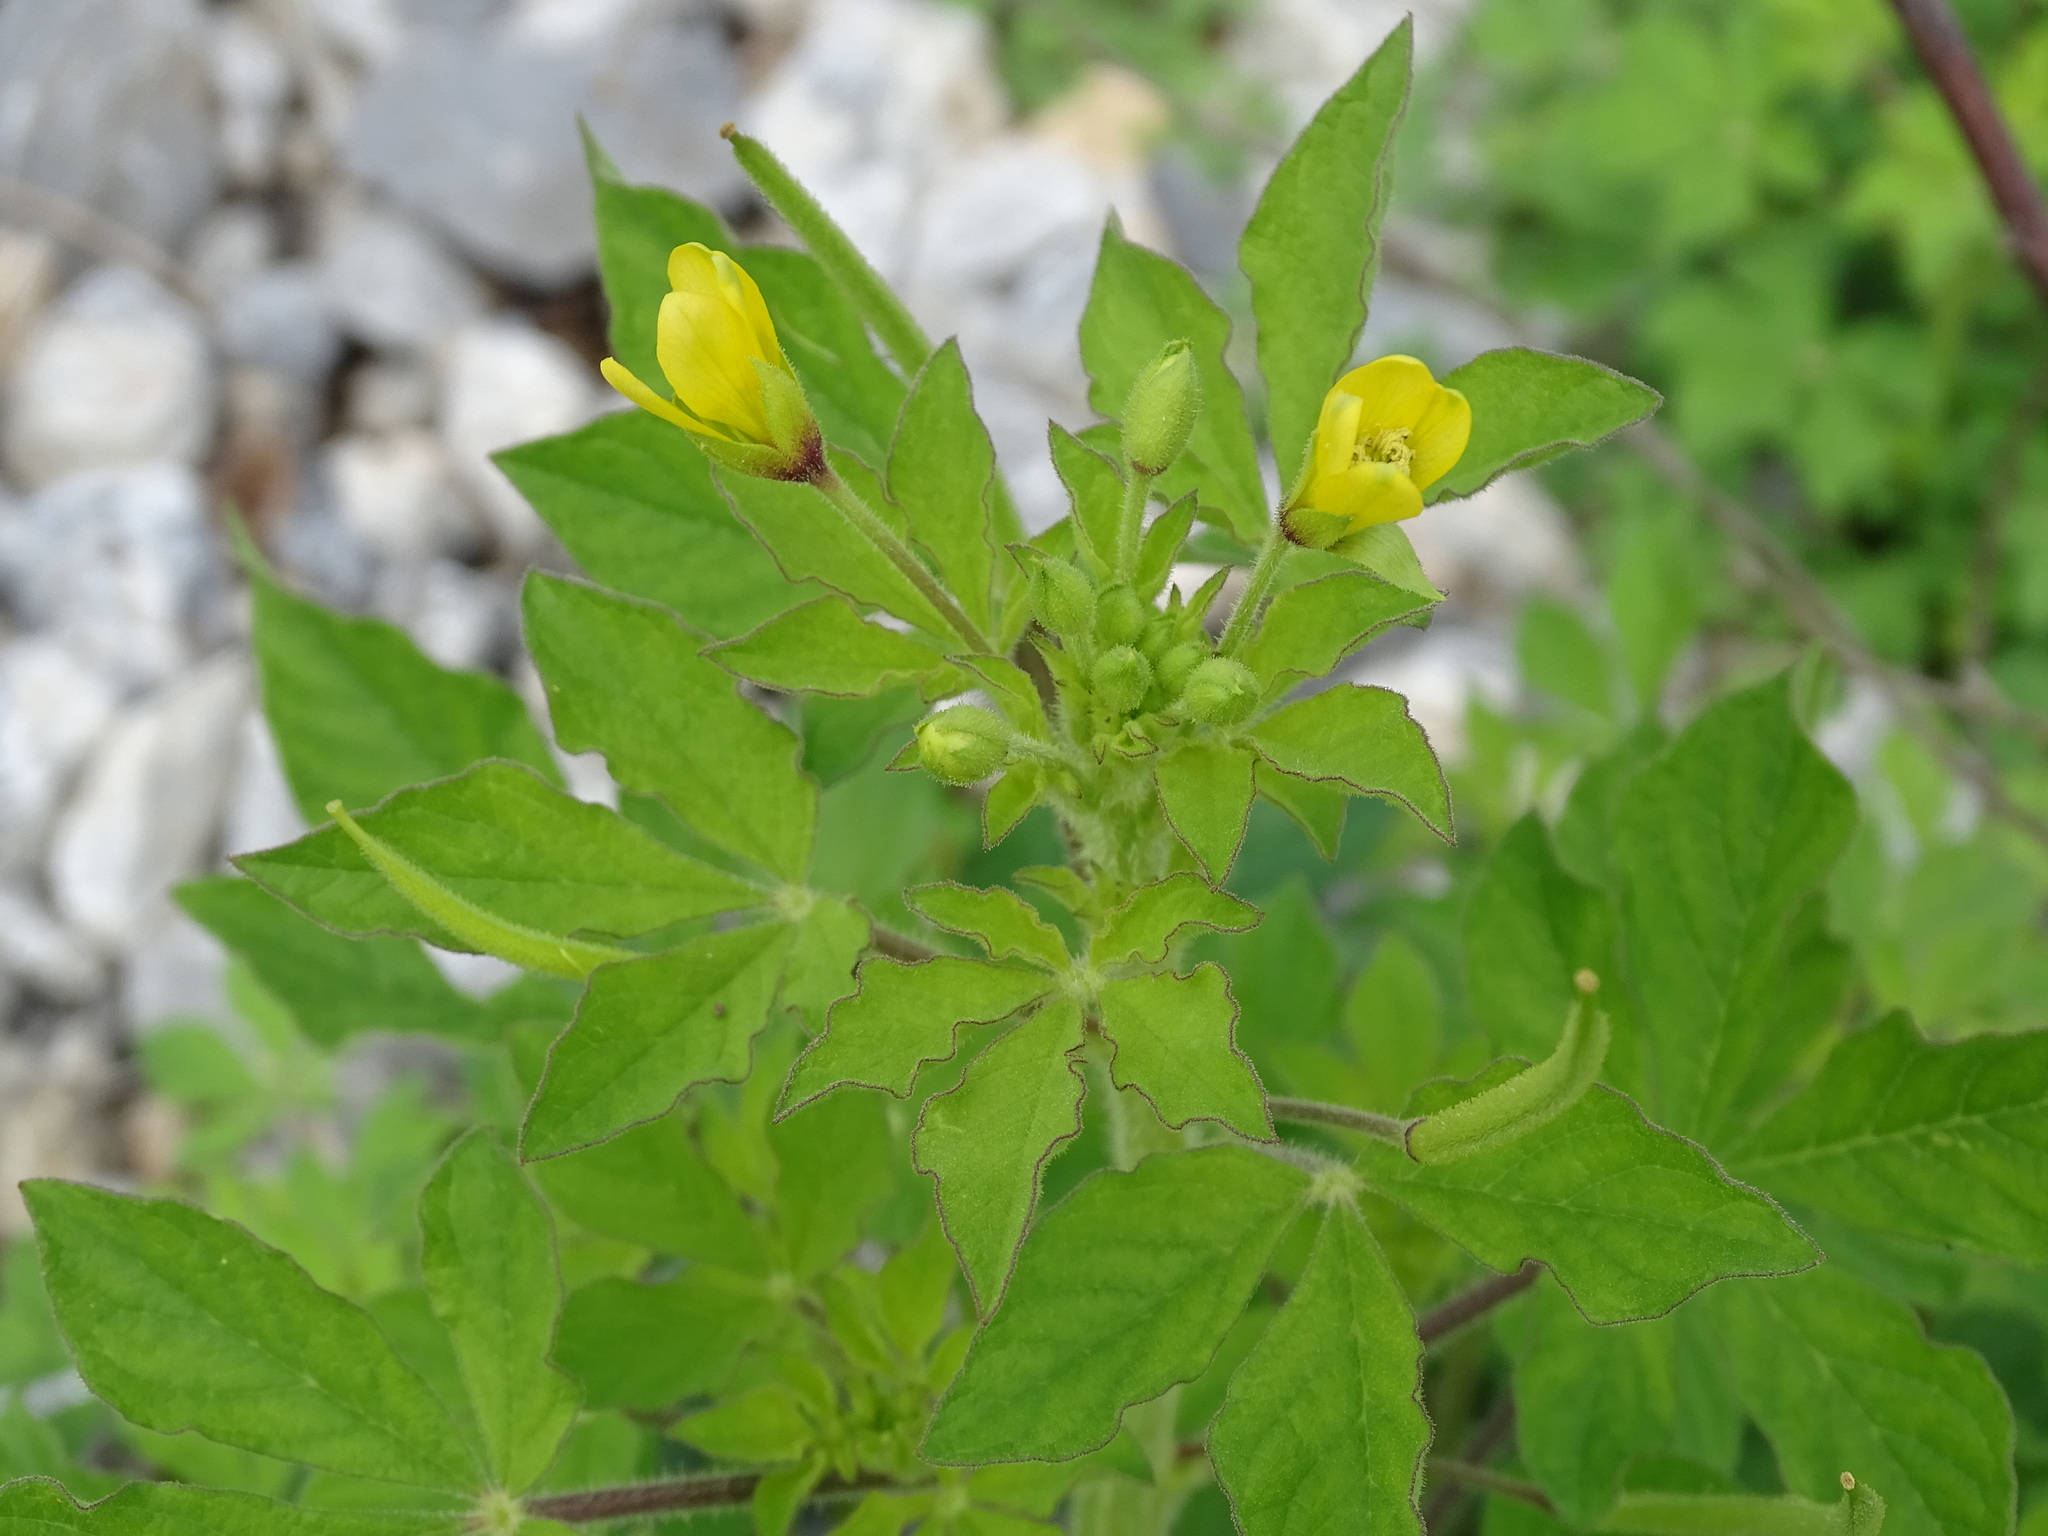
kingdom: Plantae
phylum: Tracheophyta
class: Magnoliopsida
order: Brassicales
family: Cleomaceae
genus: Arivela
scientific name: Arivela viscosa
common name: Asian spiderflower
